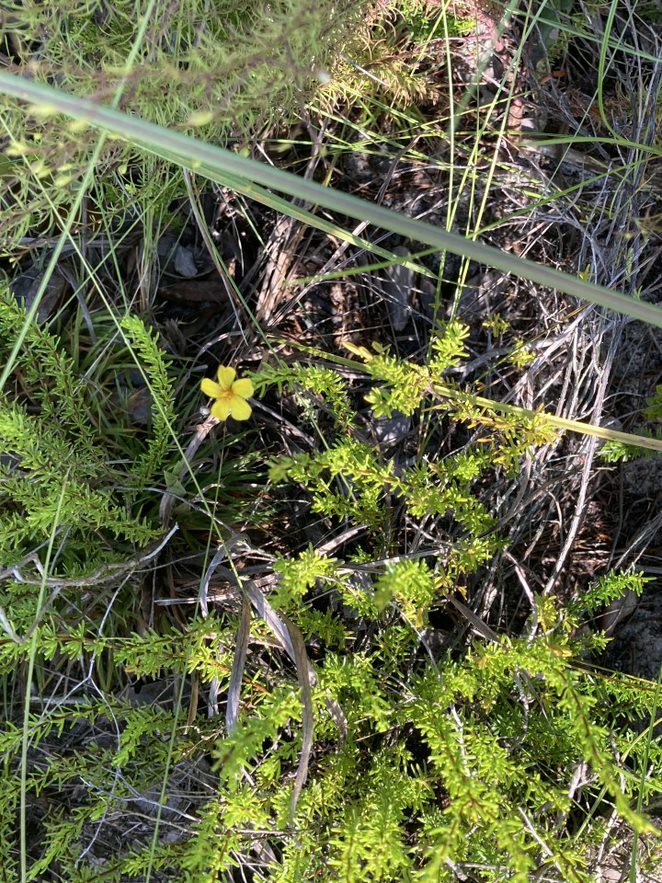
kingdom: Plantae
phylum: Tracheophyta
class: Magnoliopsida
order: Malpighiales
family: Hypericaceae
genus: Hypericum
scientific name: Hypericum tenuifolium
